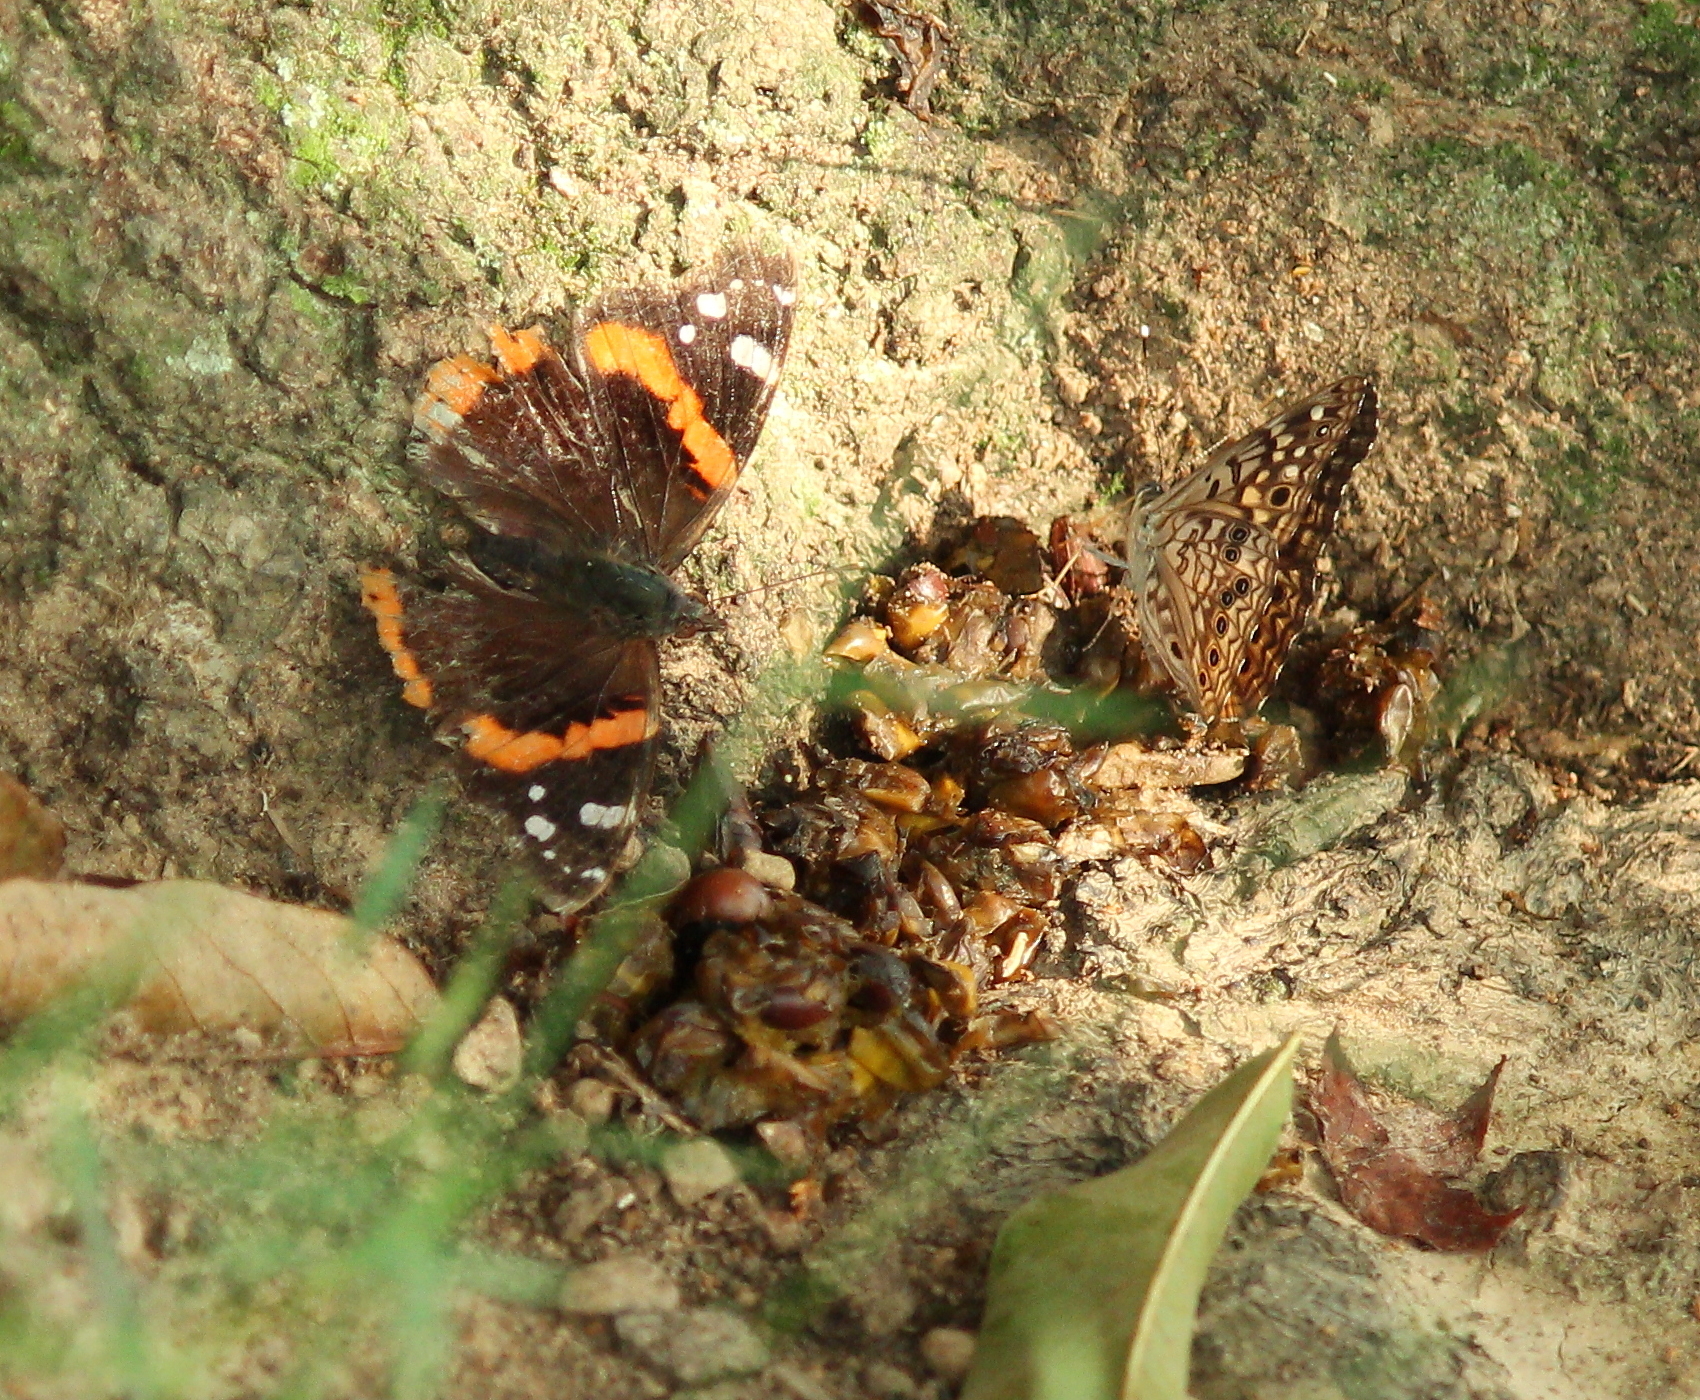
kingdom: Animalia
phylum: Arthropoda
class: Insecta
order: Lepidoptera
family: Nymphalidae
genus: Vanessa
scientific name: Vanessa atalanta
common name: Red admiral
